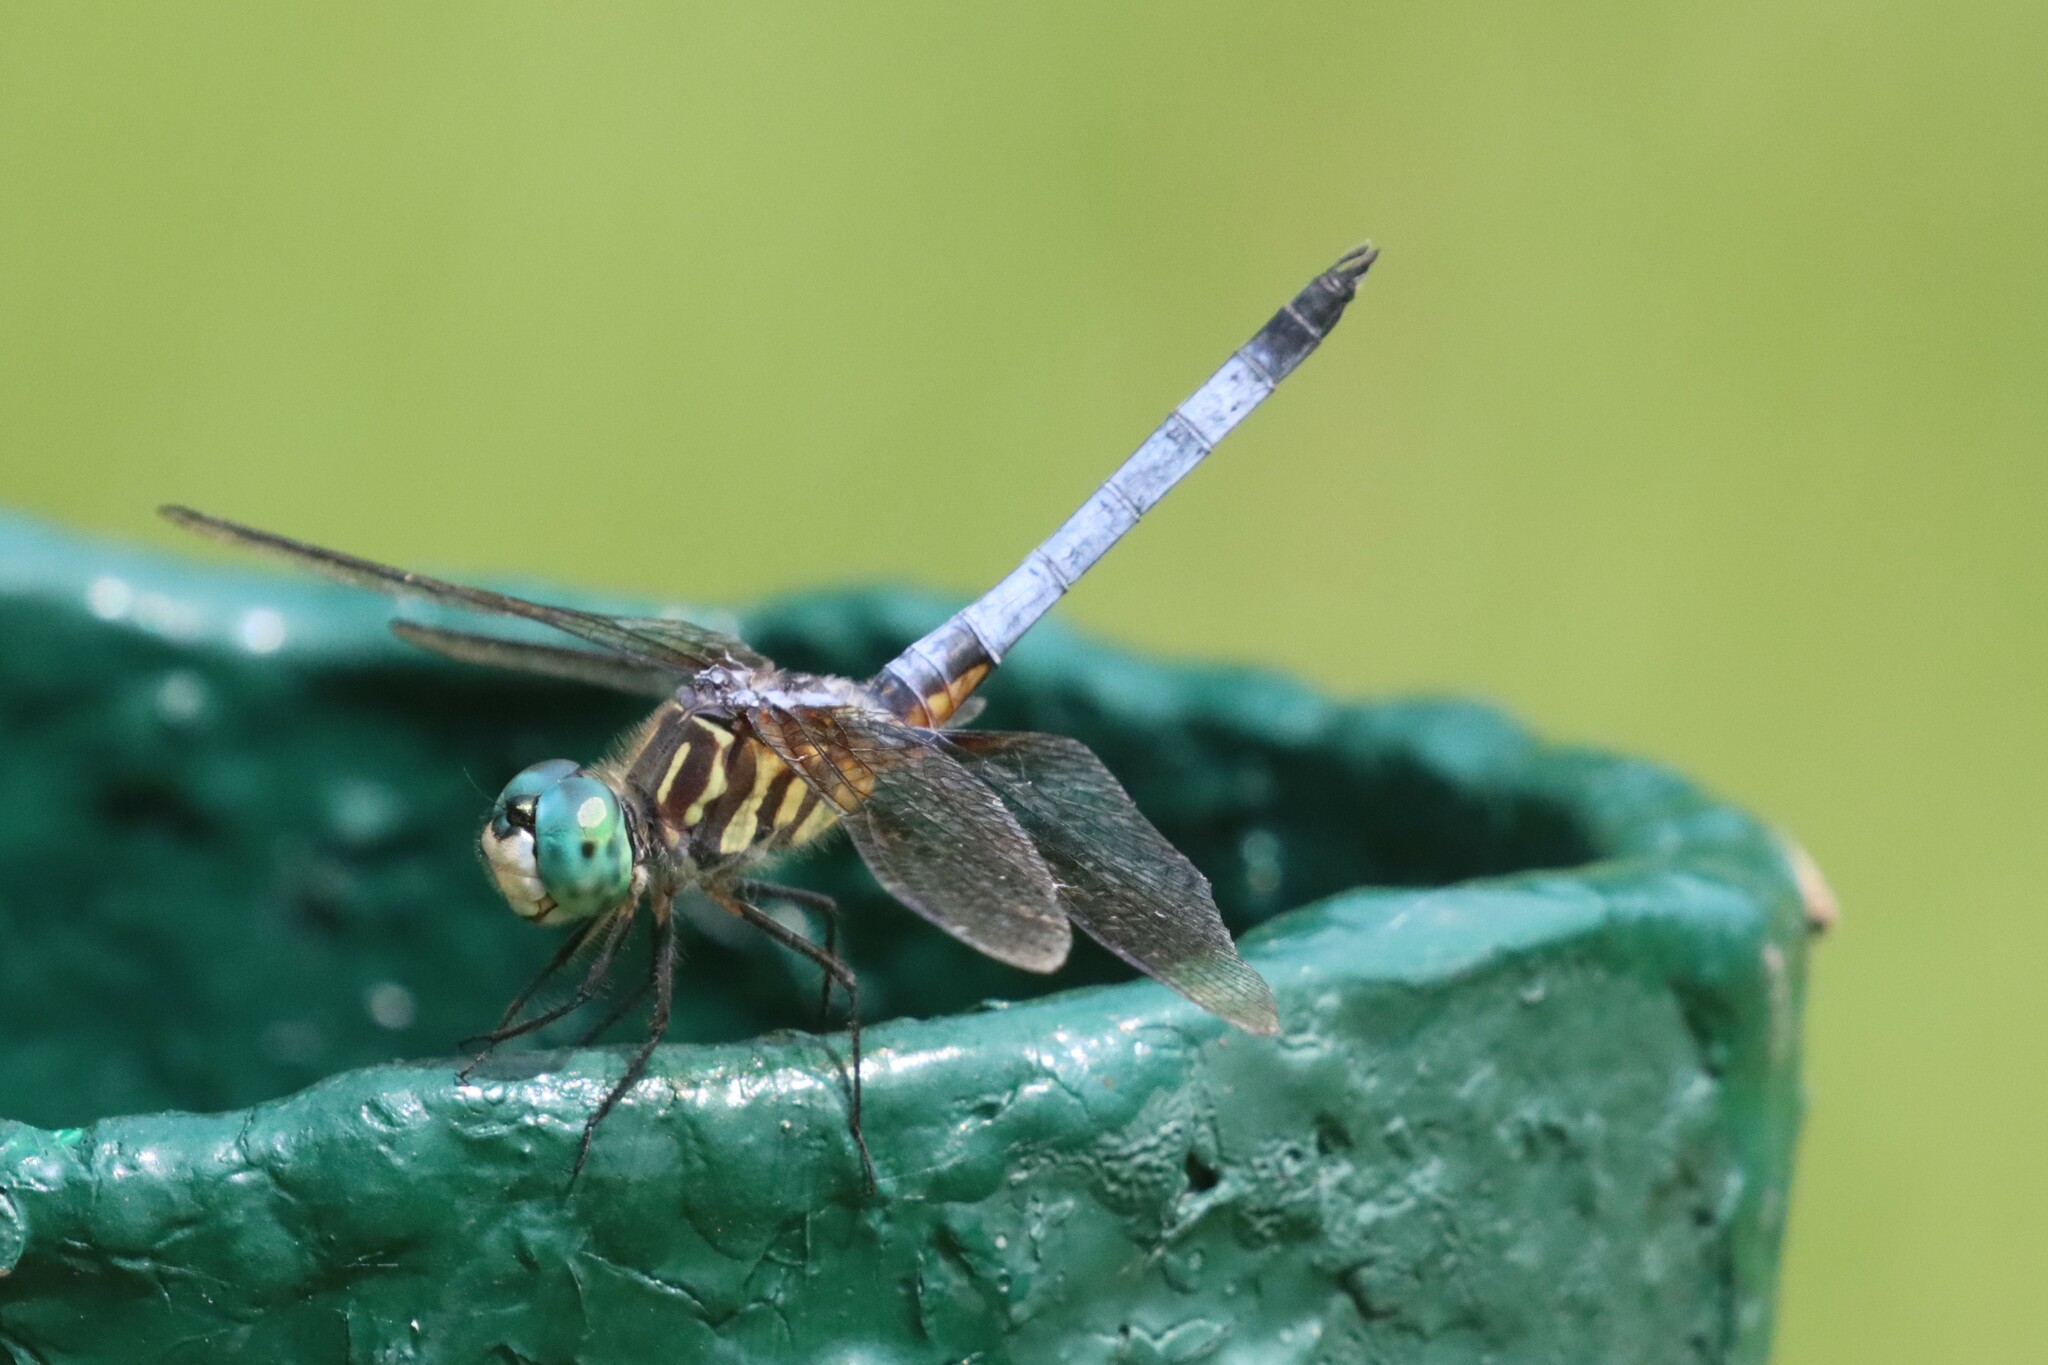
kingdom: Animalia
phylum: Arthropoda
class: Insecta
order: Odonata
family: Libellulidae
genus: Pachydiplax
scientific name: Pachydiplax longipennis
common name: Blue dasher
